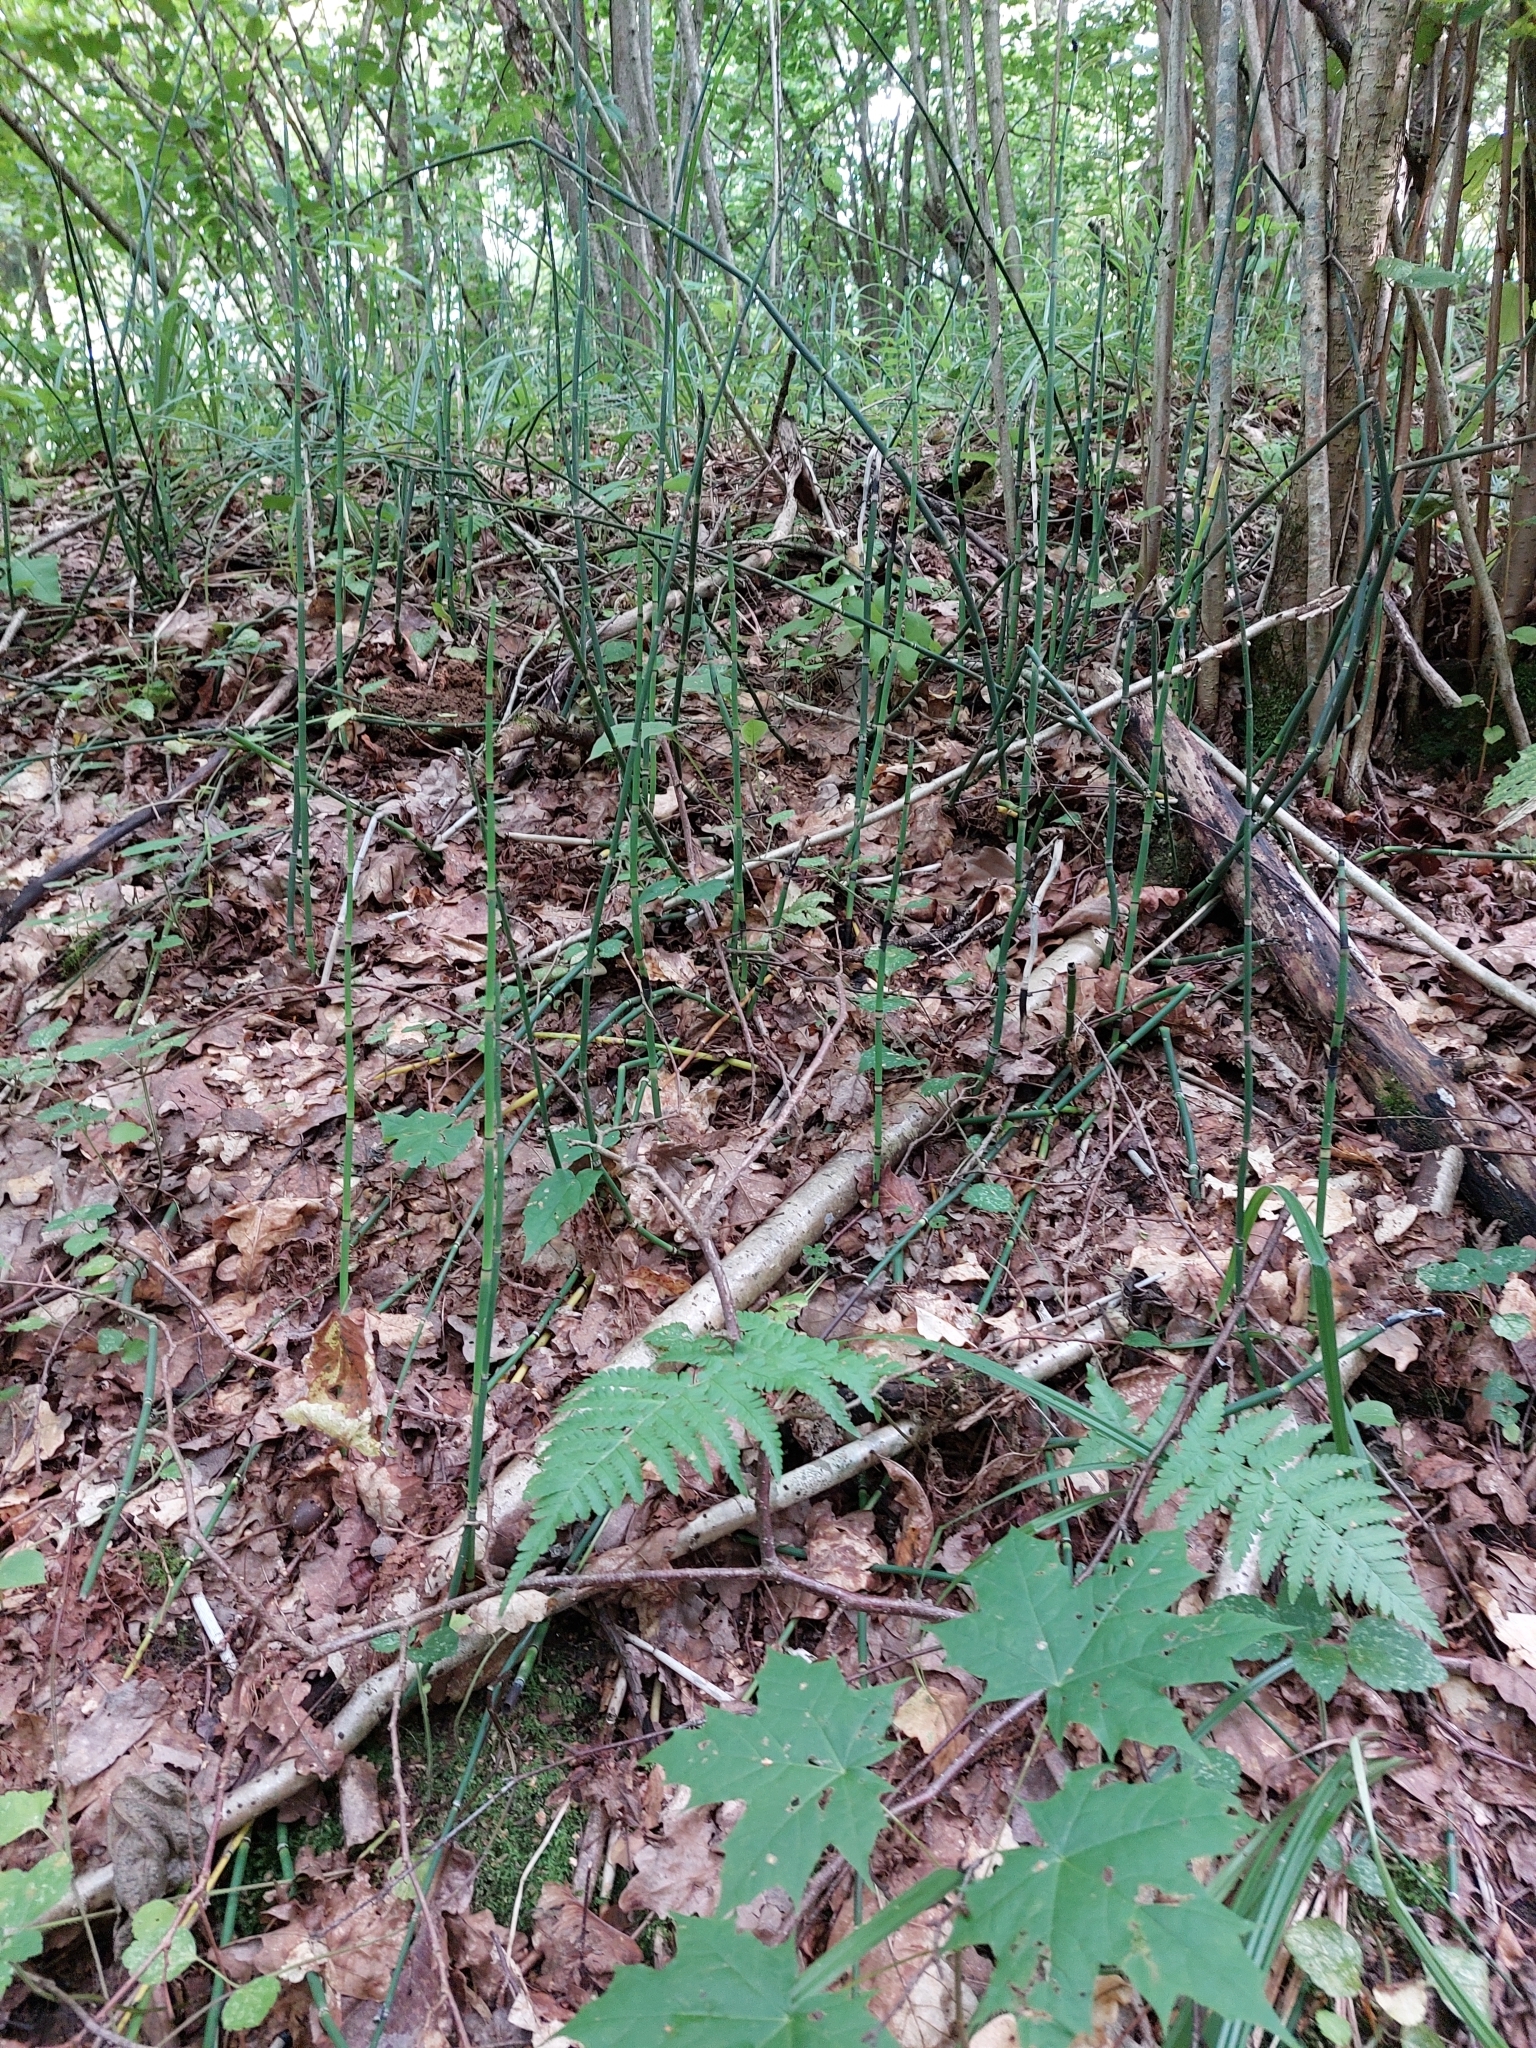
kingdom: Plantae
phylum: Tracheophyta
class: Polypodiopsida
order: Equisetales
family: Equisetaceae
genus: Equisetum
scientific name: Equisetum hyemale
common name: Rough horsetail
